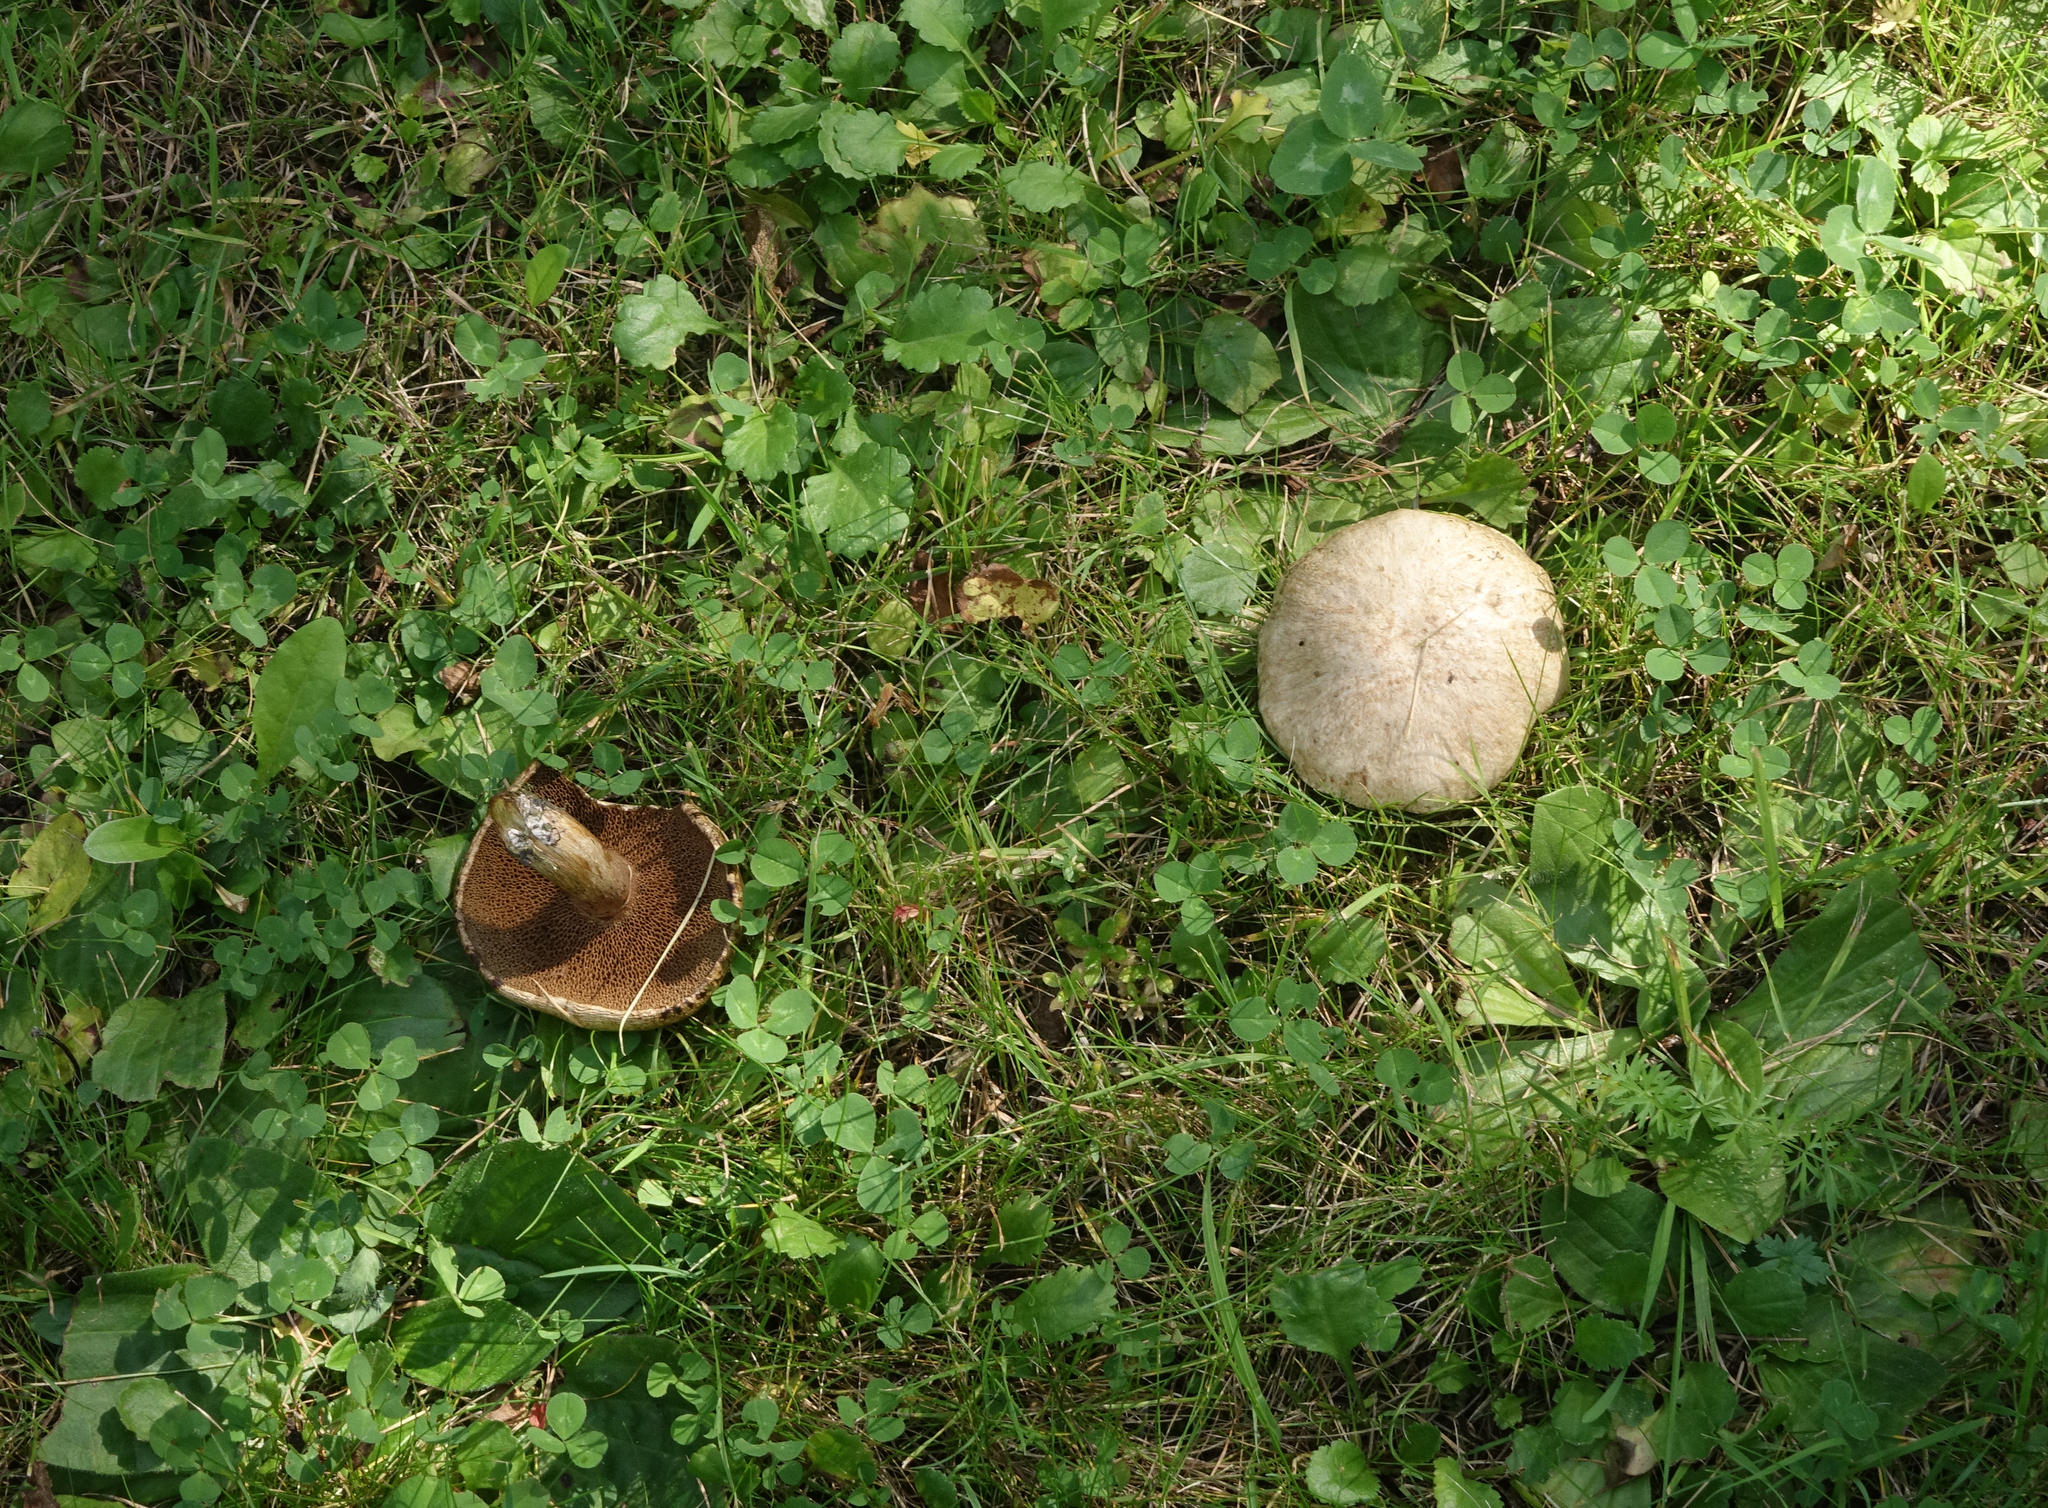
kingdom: Fungi
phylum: Basidiomycota
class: Agaricomycetes
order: Boletales
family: Suillaceae
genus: Suillus
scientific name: Suillus viscidus
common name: Sticky bolete
